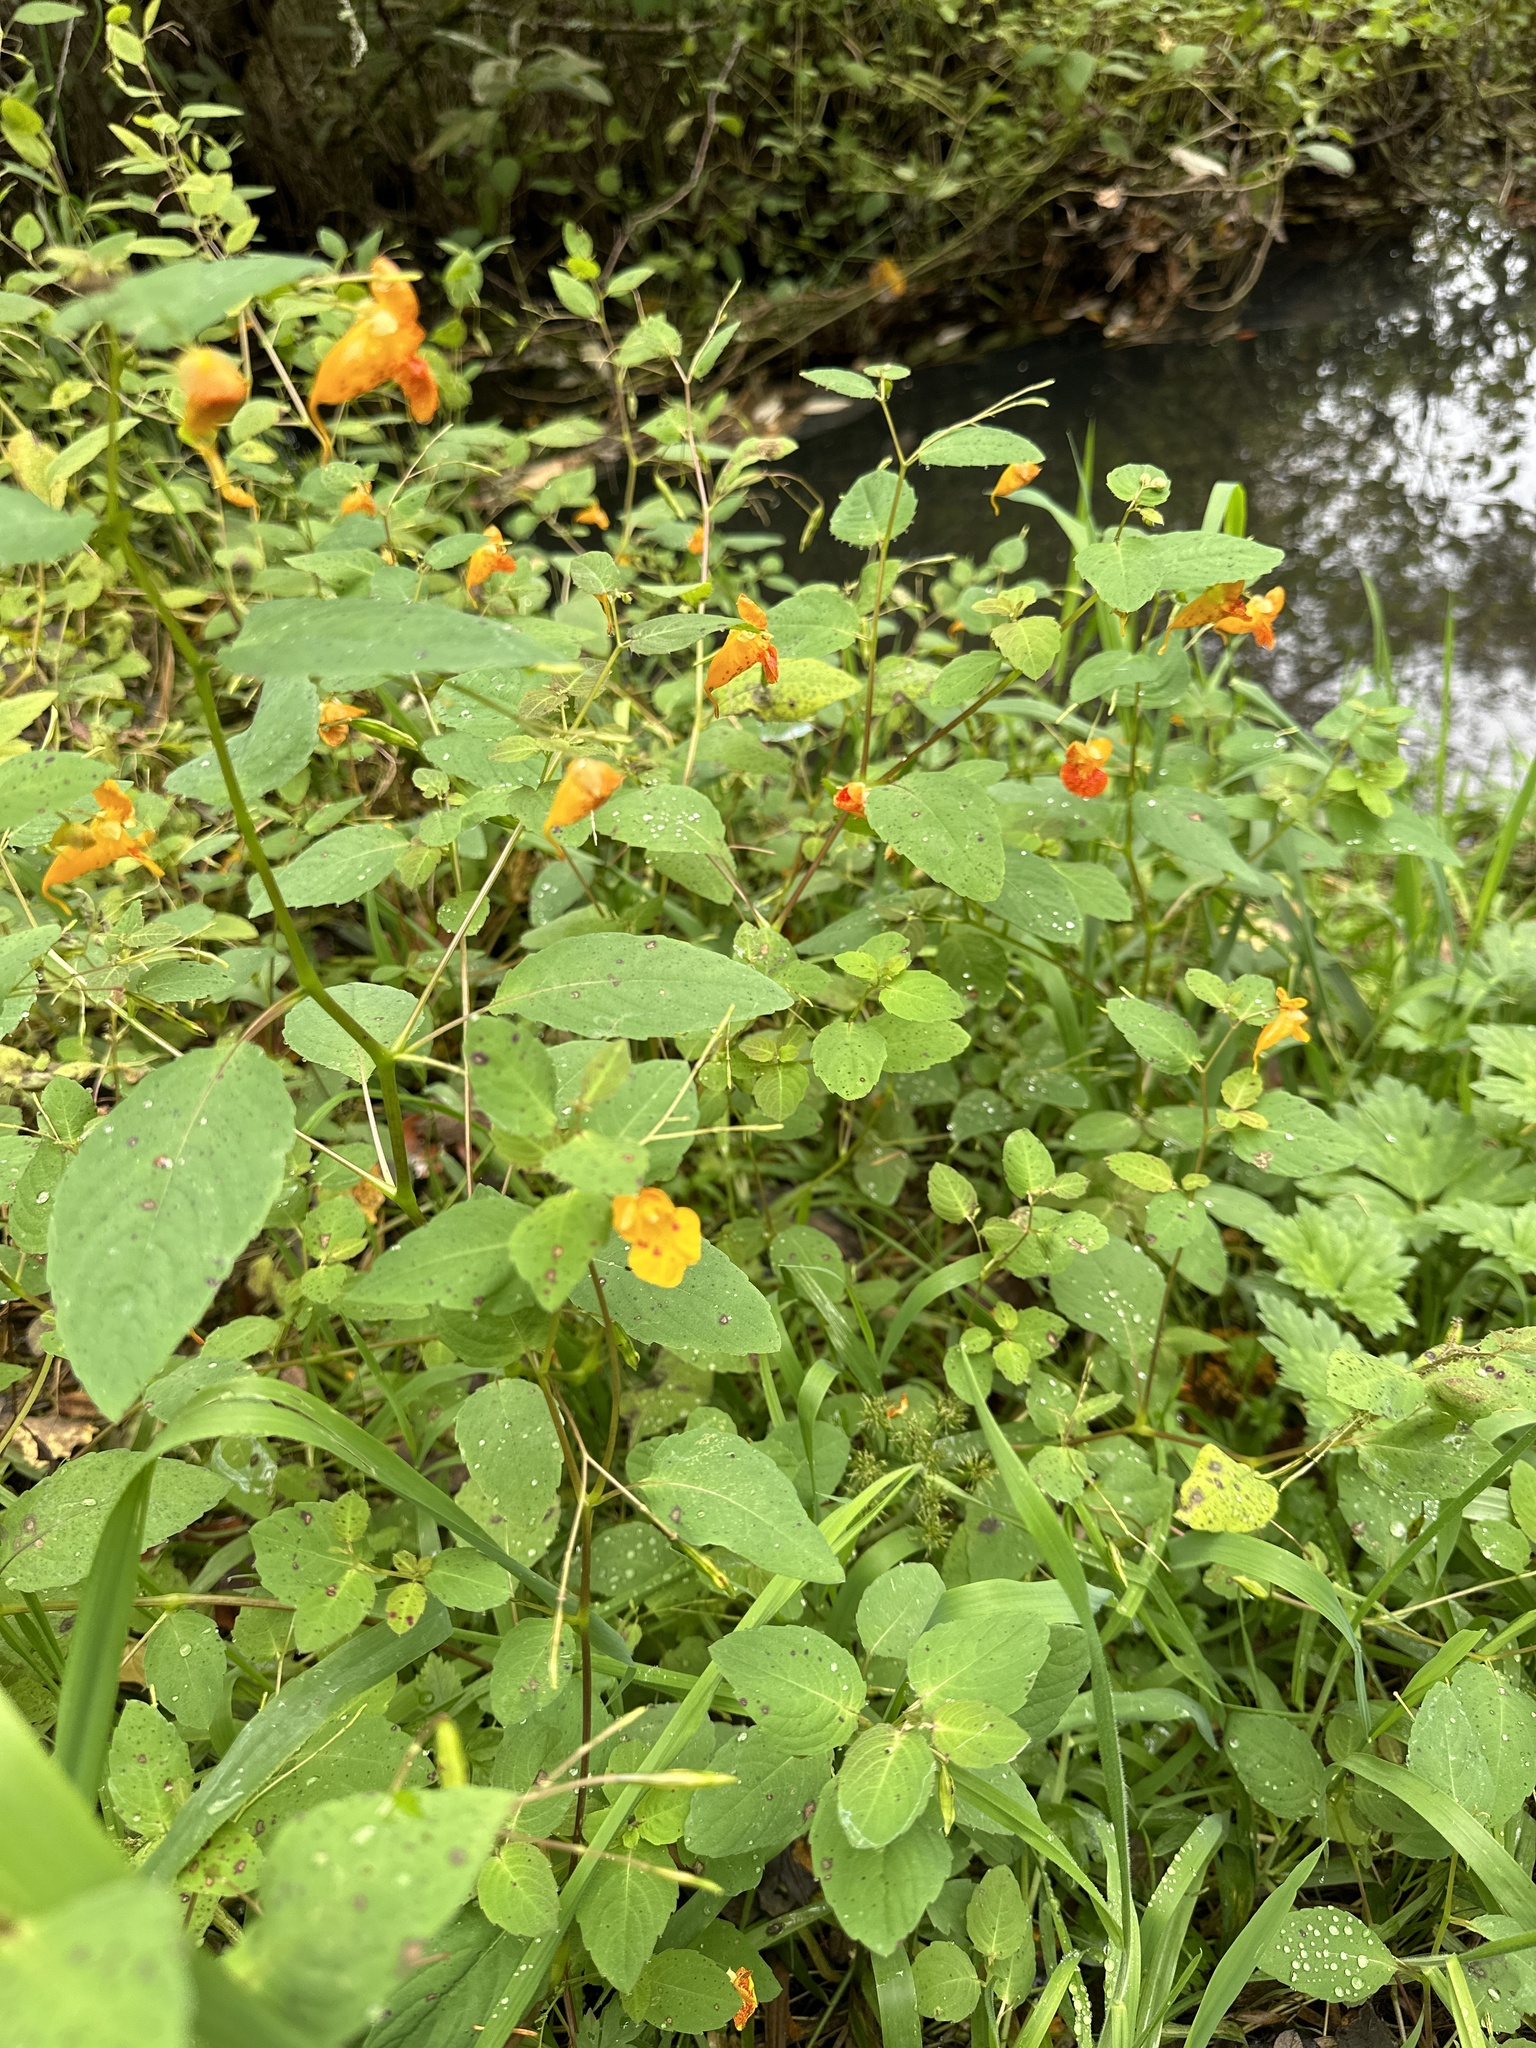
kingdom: Plantae
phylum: Tracheophyta
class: Magnoliopsida
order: Ericales
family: Balsaminaceae
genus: Impatiens
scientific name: Impatiens capensis
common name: Orange balsam
